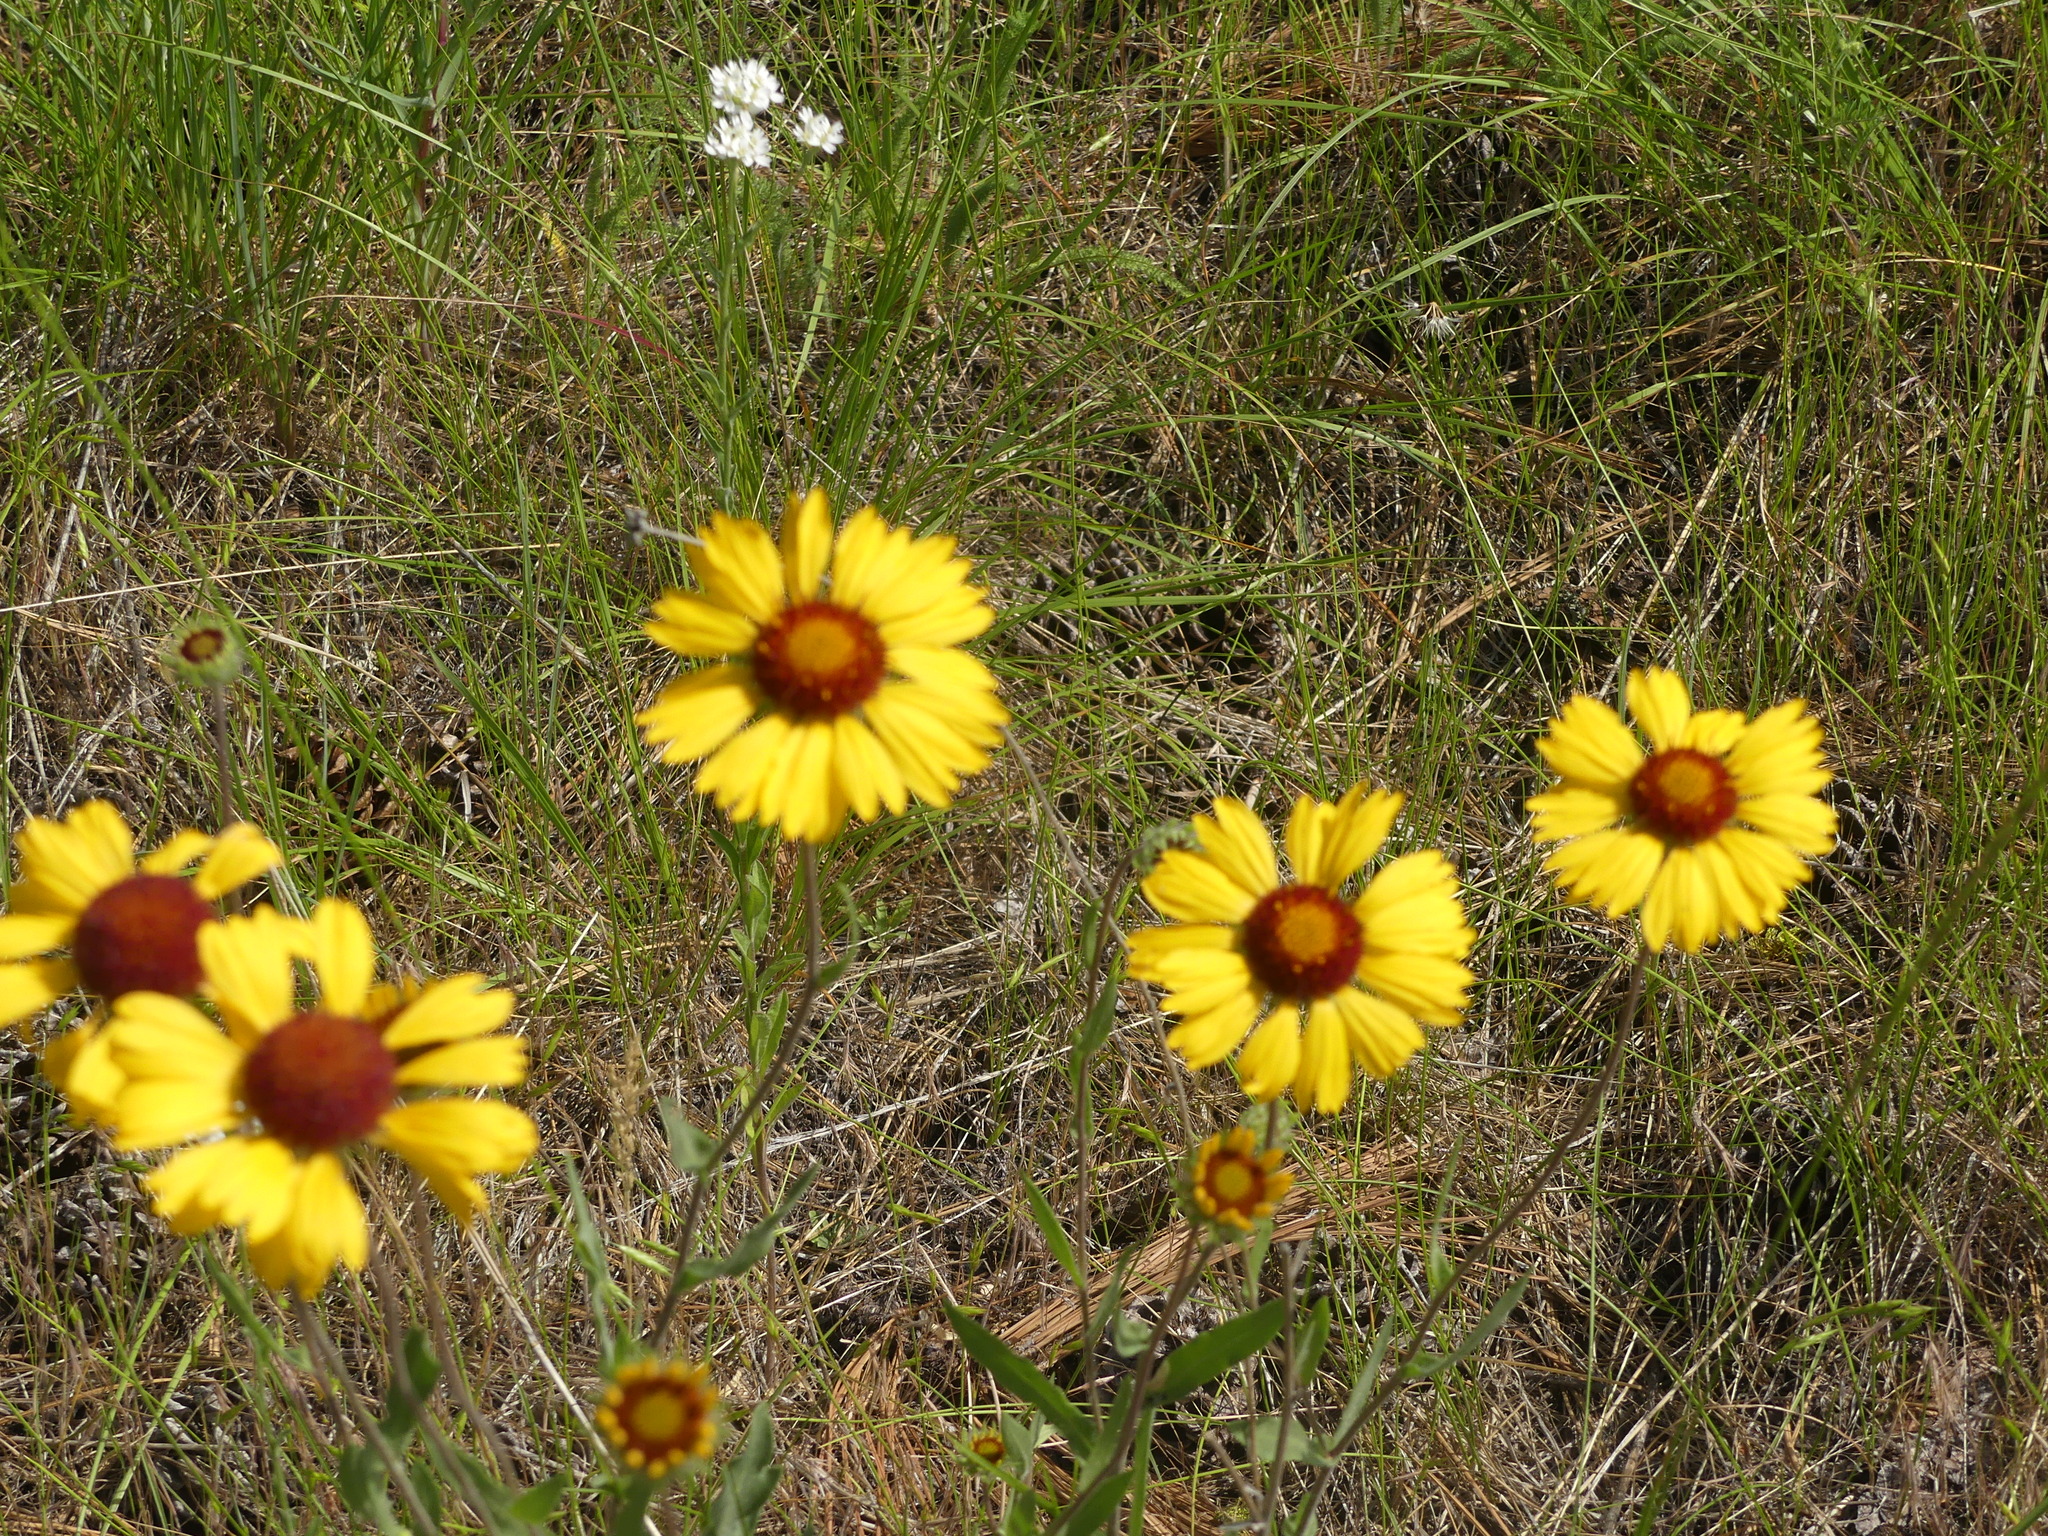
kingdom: Plantae
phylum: Tracheophyta
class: Magnoliopsida
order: Asterales
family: Asteraceae
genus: Gaillardia
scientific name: Gaillardia aristata
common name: Blanket-flower
